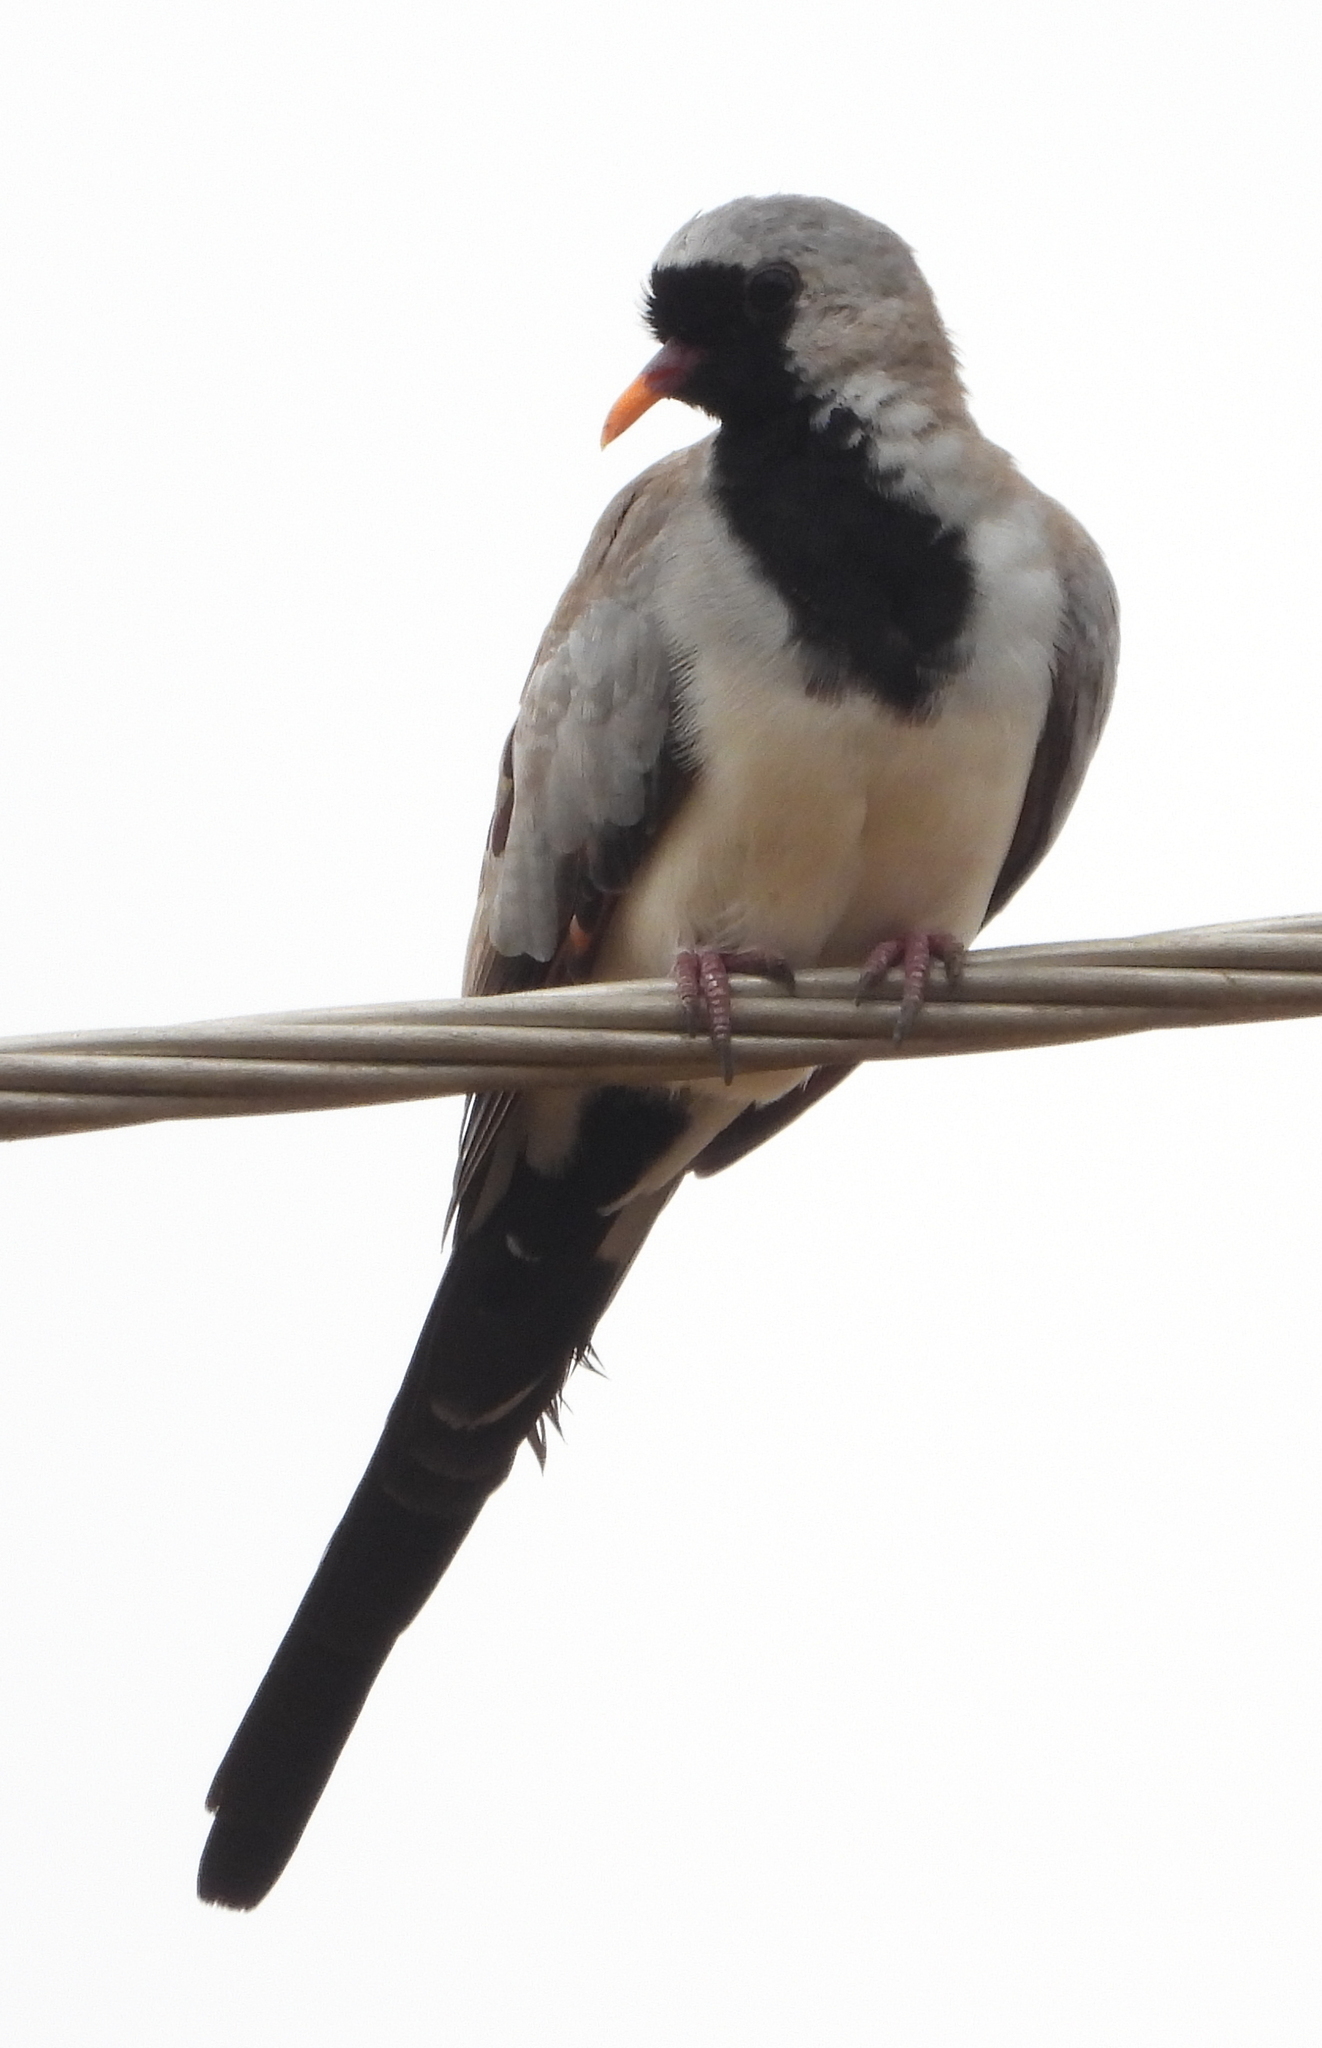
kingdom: Animalia
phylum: Chordata
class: Aves
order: Columbiformes
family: Columbidae
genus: Oena
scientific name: Oena capensis
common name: Namaqua dove
